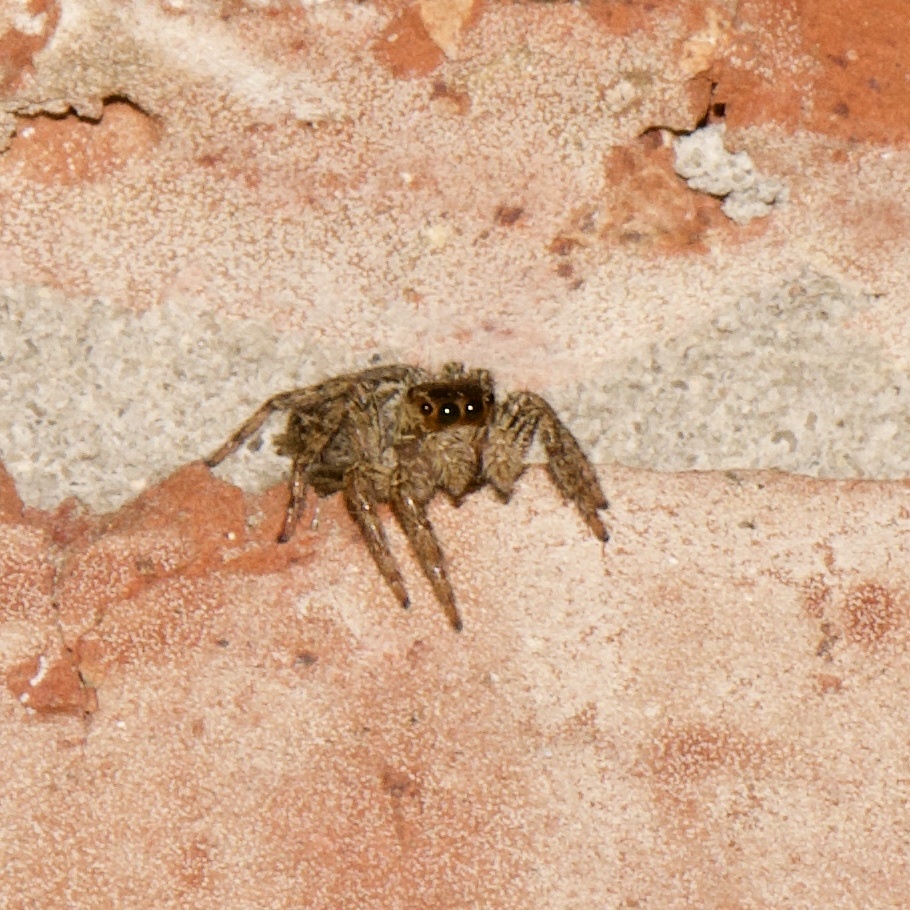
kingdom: Animalia
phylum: Arthropoda
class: Arachnida
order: Araneae
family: Salticidae
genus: Plexippus
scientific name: Plexippus paykulli
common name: Pantropical jumper
